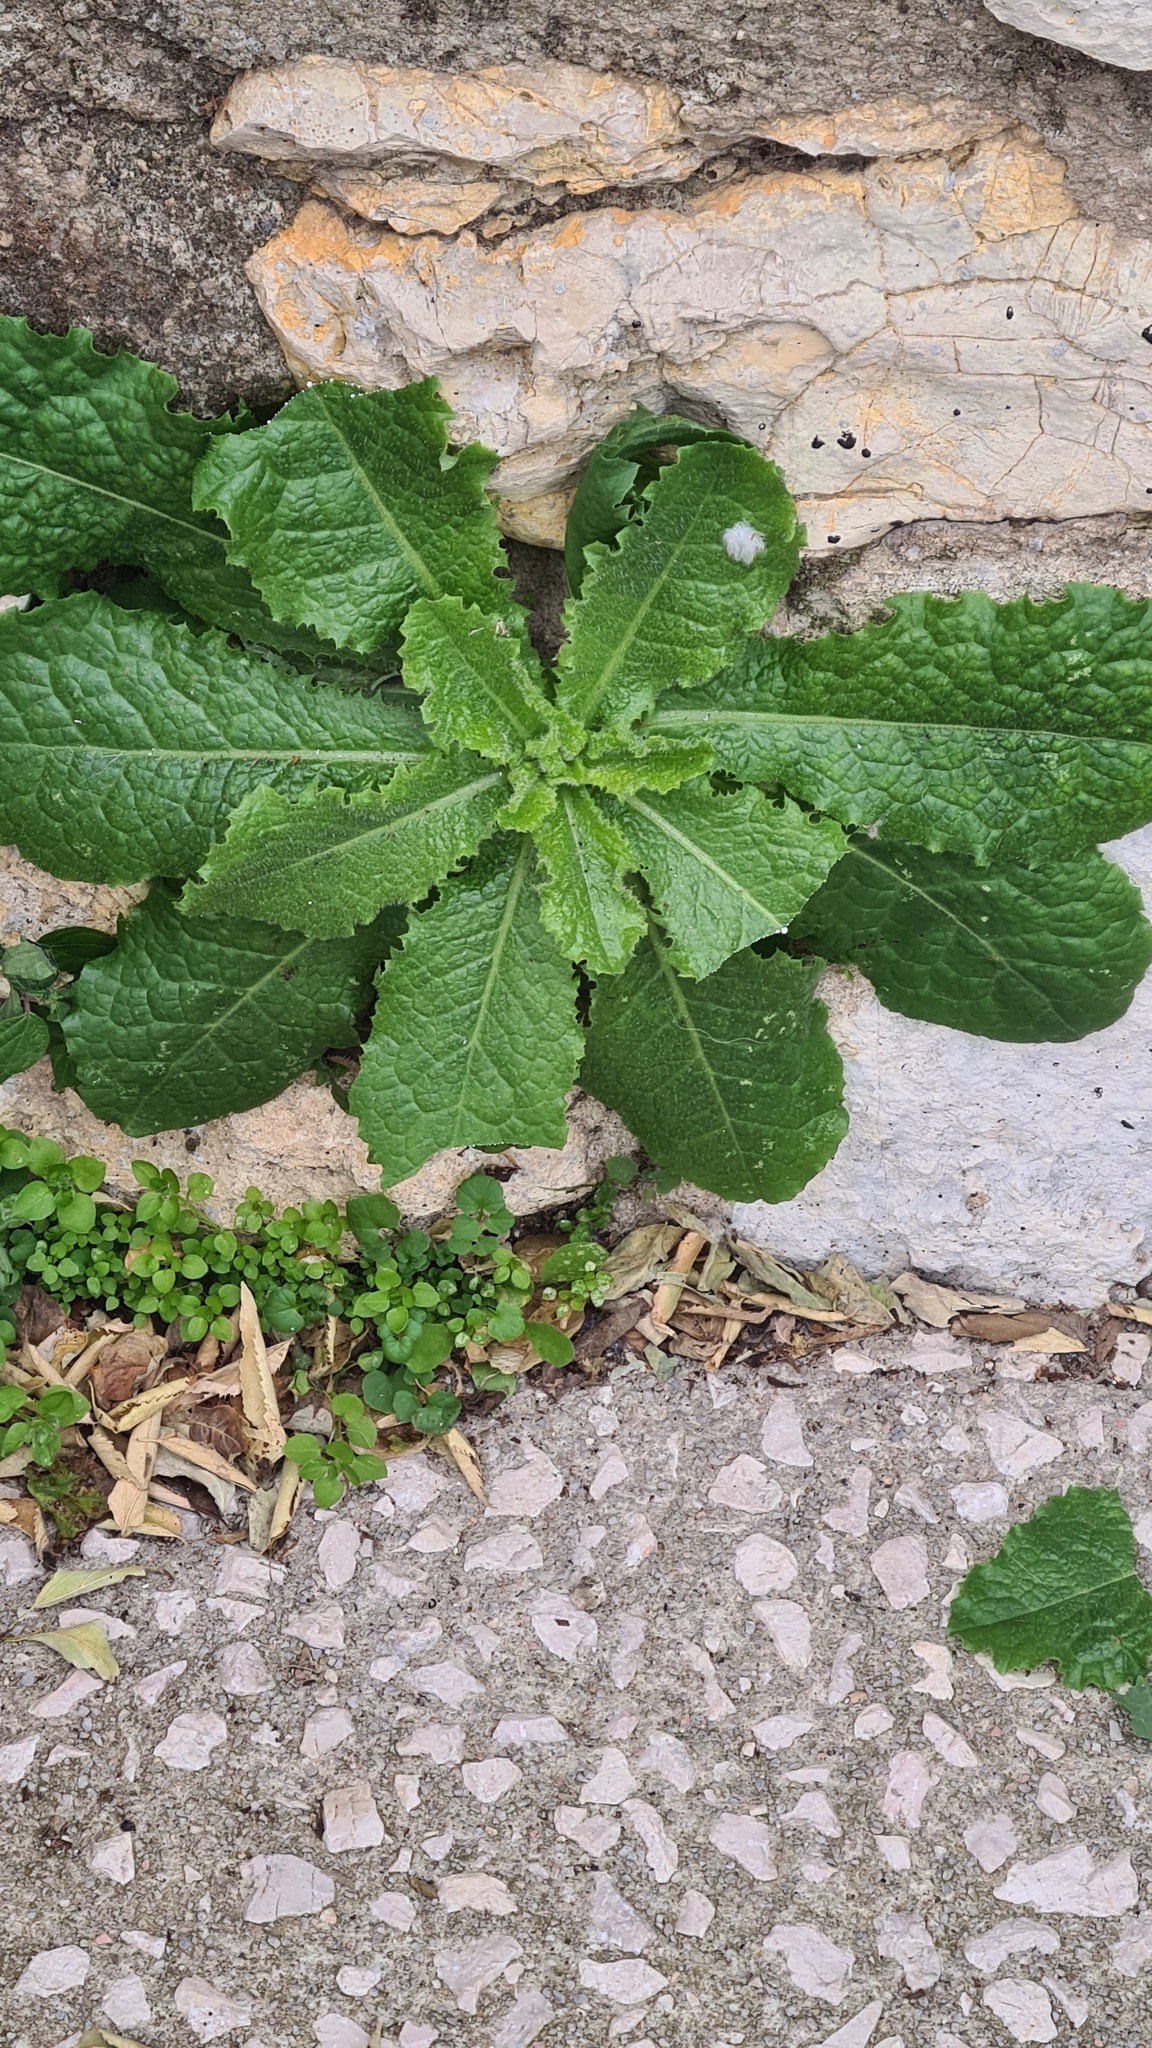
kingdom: Plantae
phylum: Tracheophyta
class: Magnoliopsida
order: Asterales
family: Asteraceae
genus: Lactuca
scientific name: Lactuca virosa
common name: Great lettuce
